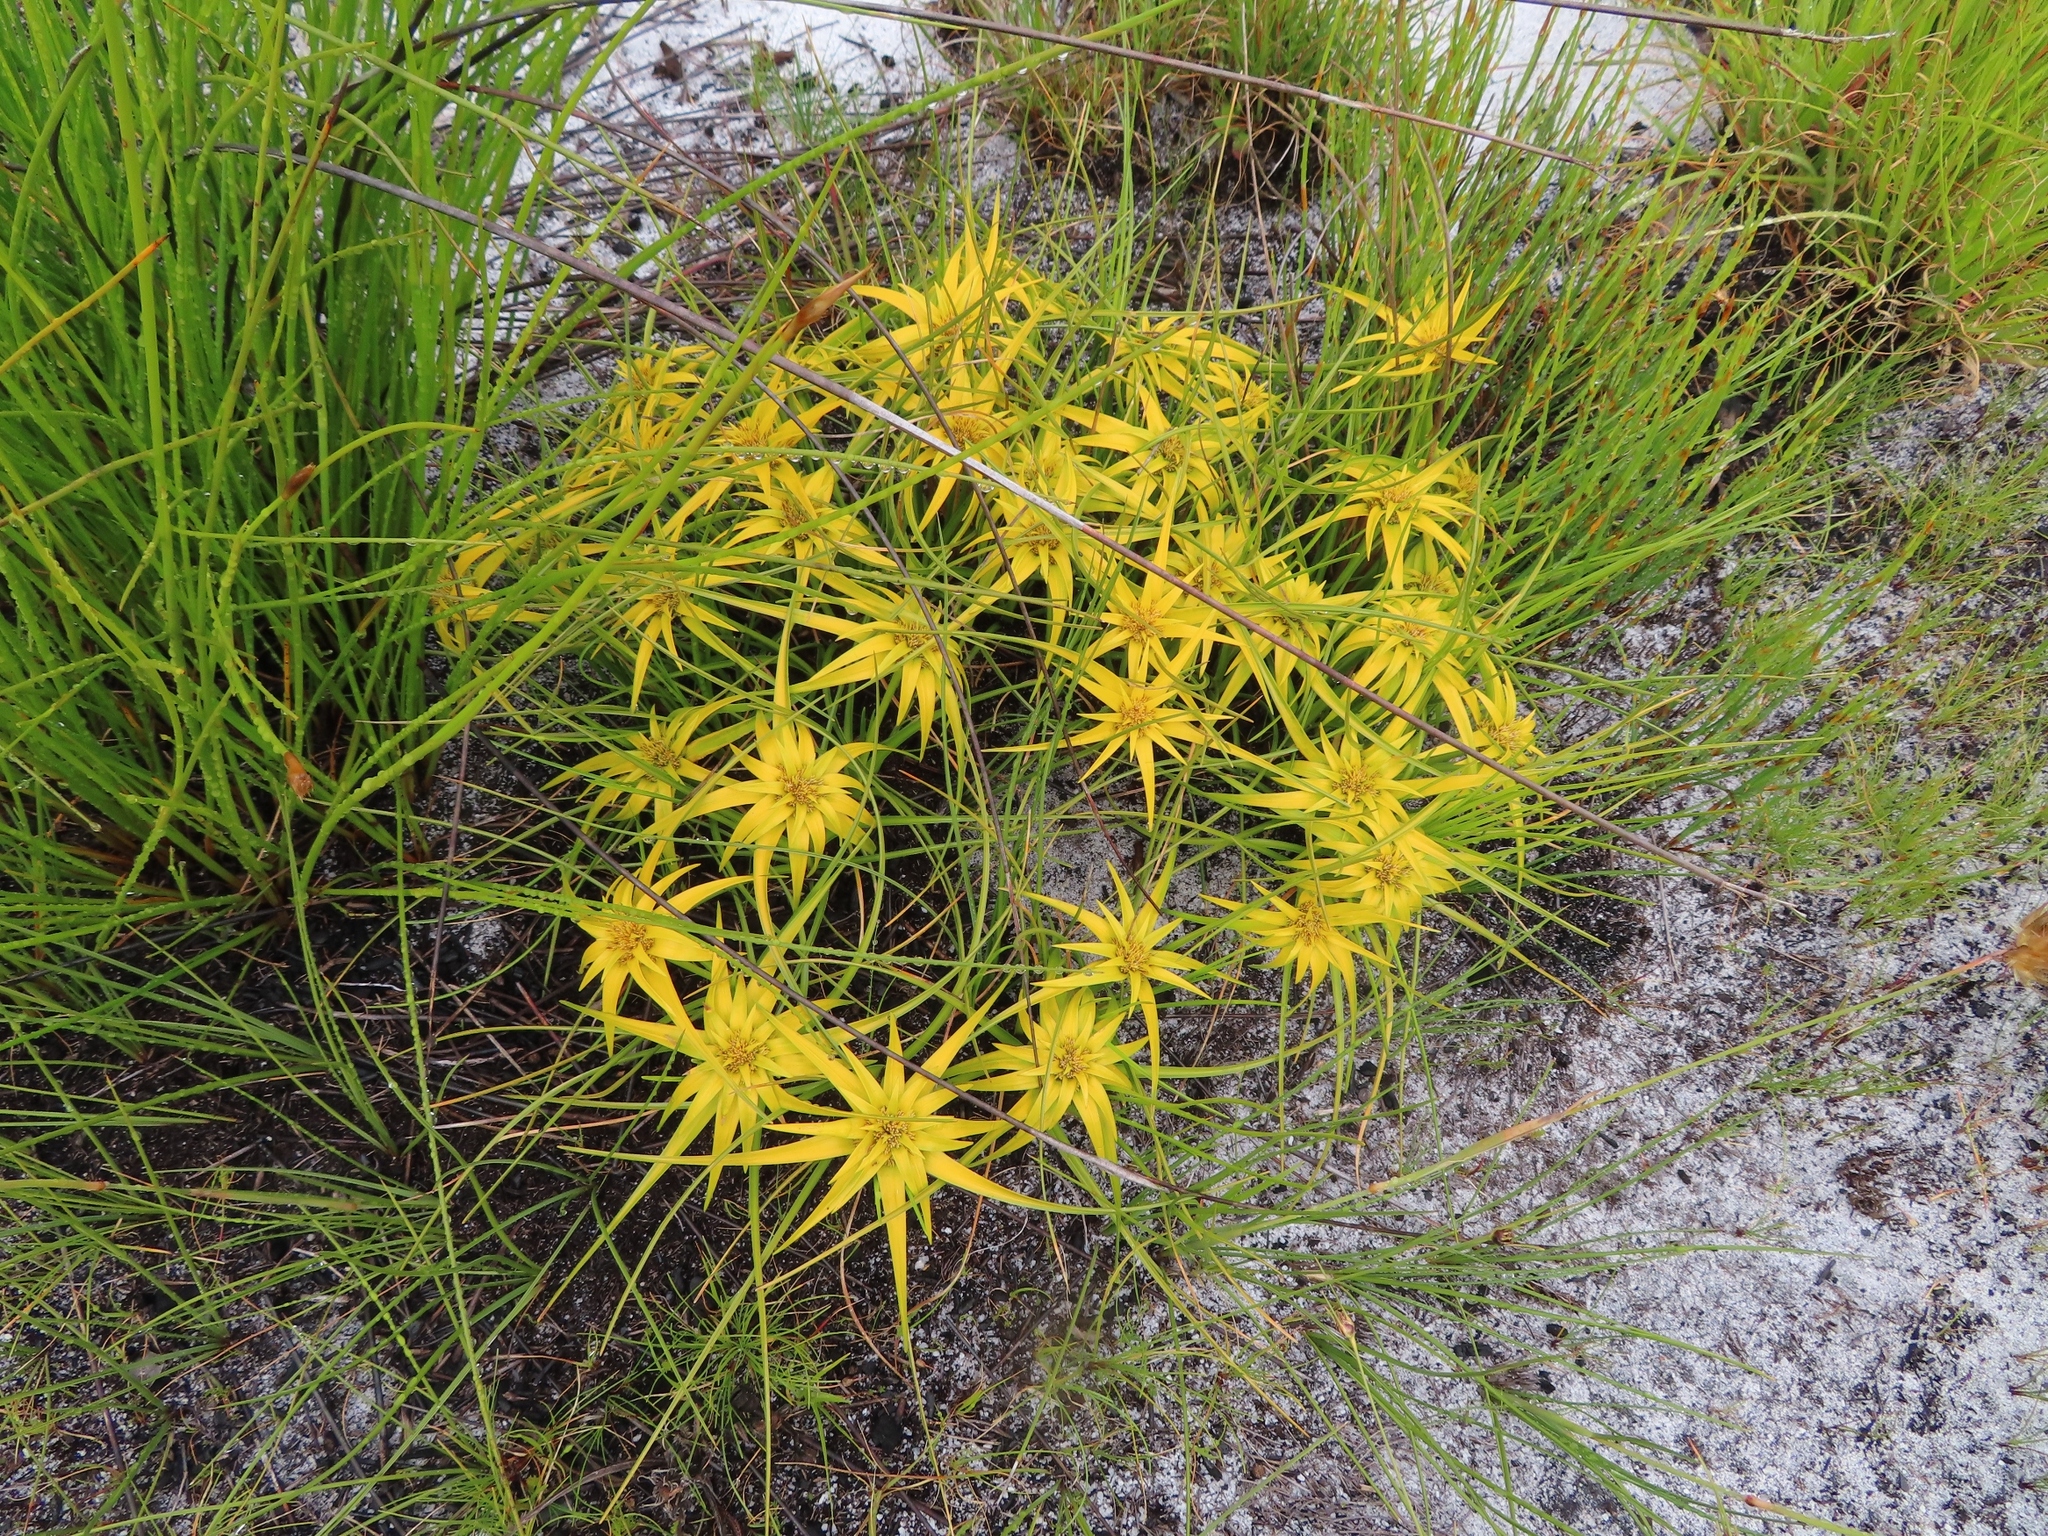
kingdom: Plantae
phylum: Tracheophyta
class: Liliopsida
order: Poales
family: Cyperaceae
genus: Ficinia
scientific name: Ficinia radiata
